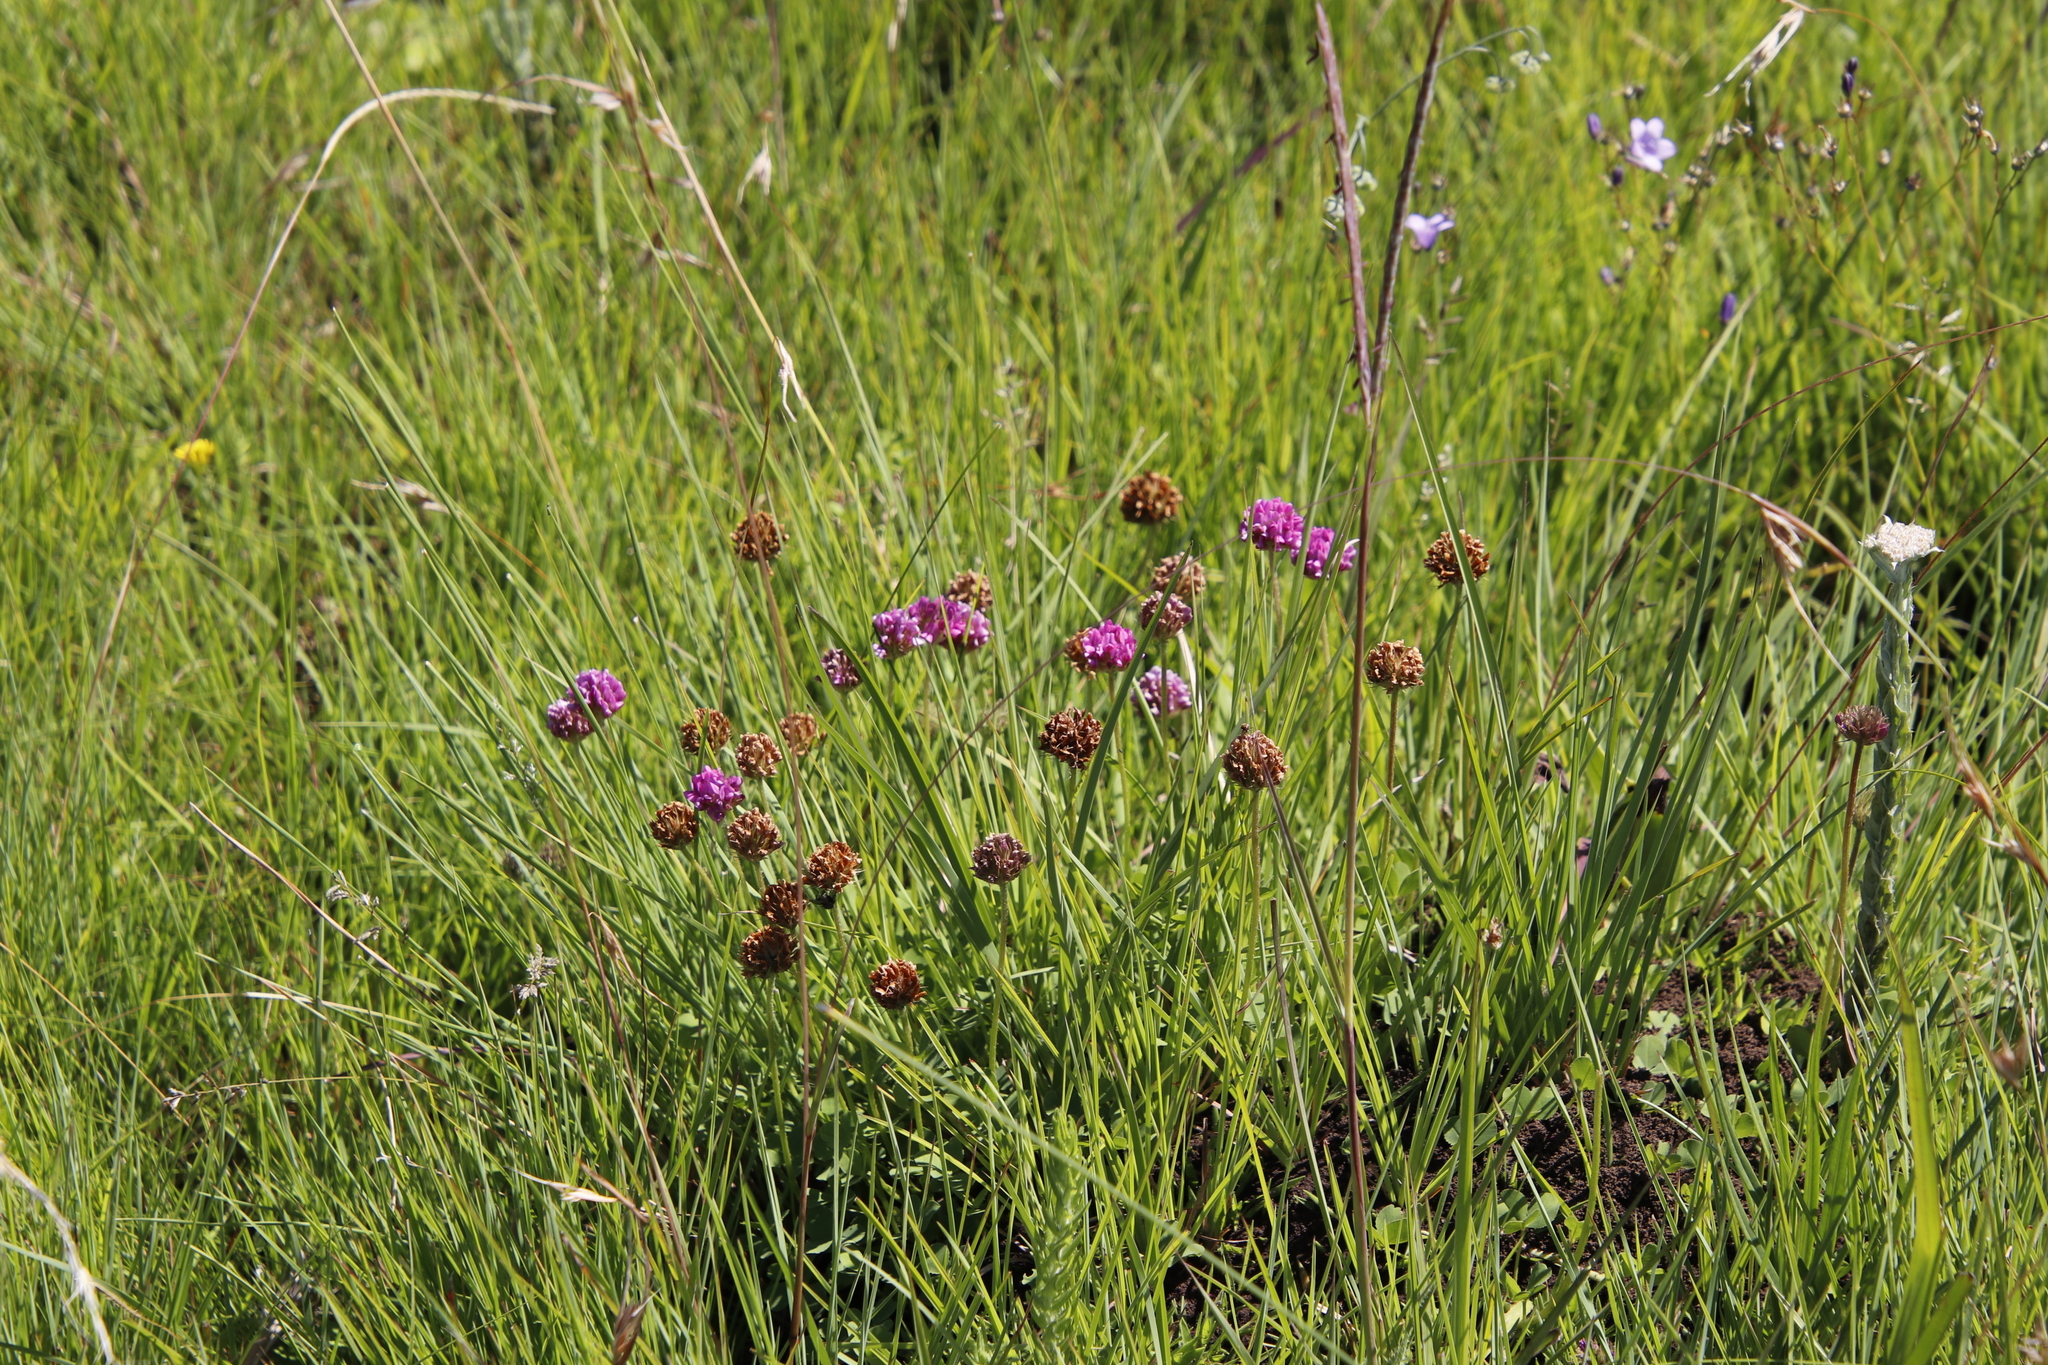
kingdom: Plantae
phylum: Tracheophyta
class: Magnoliopsida
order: Fabales
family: Fabaceae
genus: Trifolium
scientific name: Trifolium burchellianum
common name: Burchell's clover
